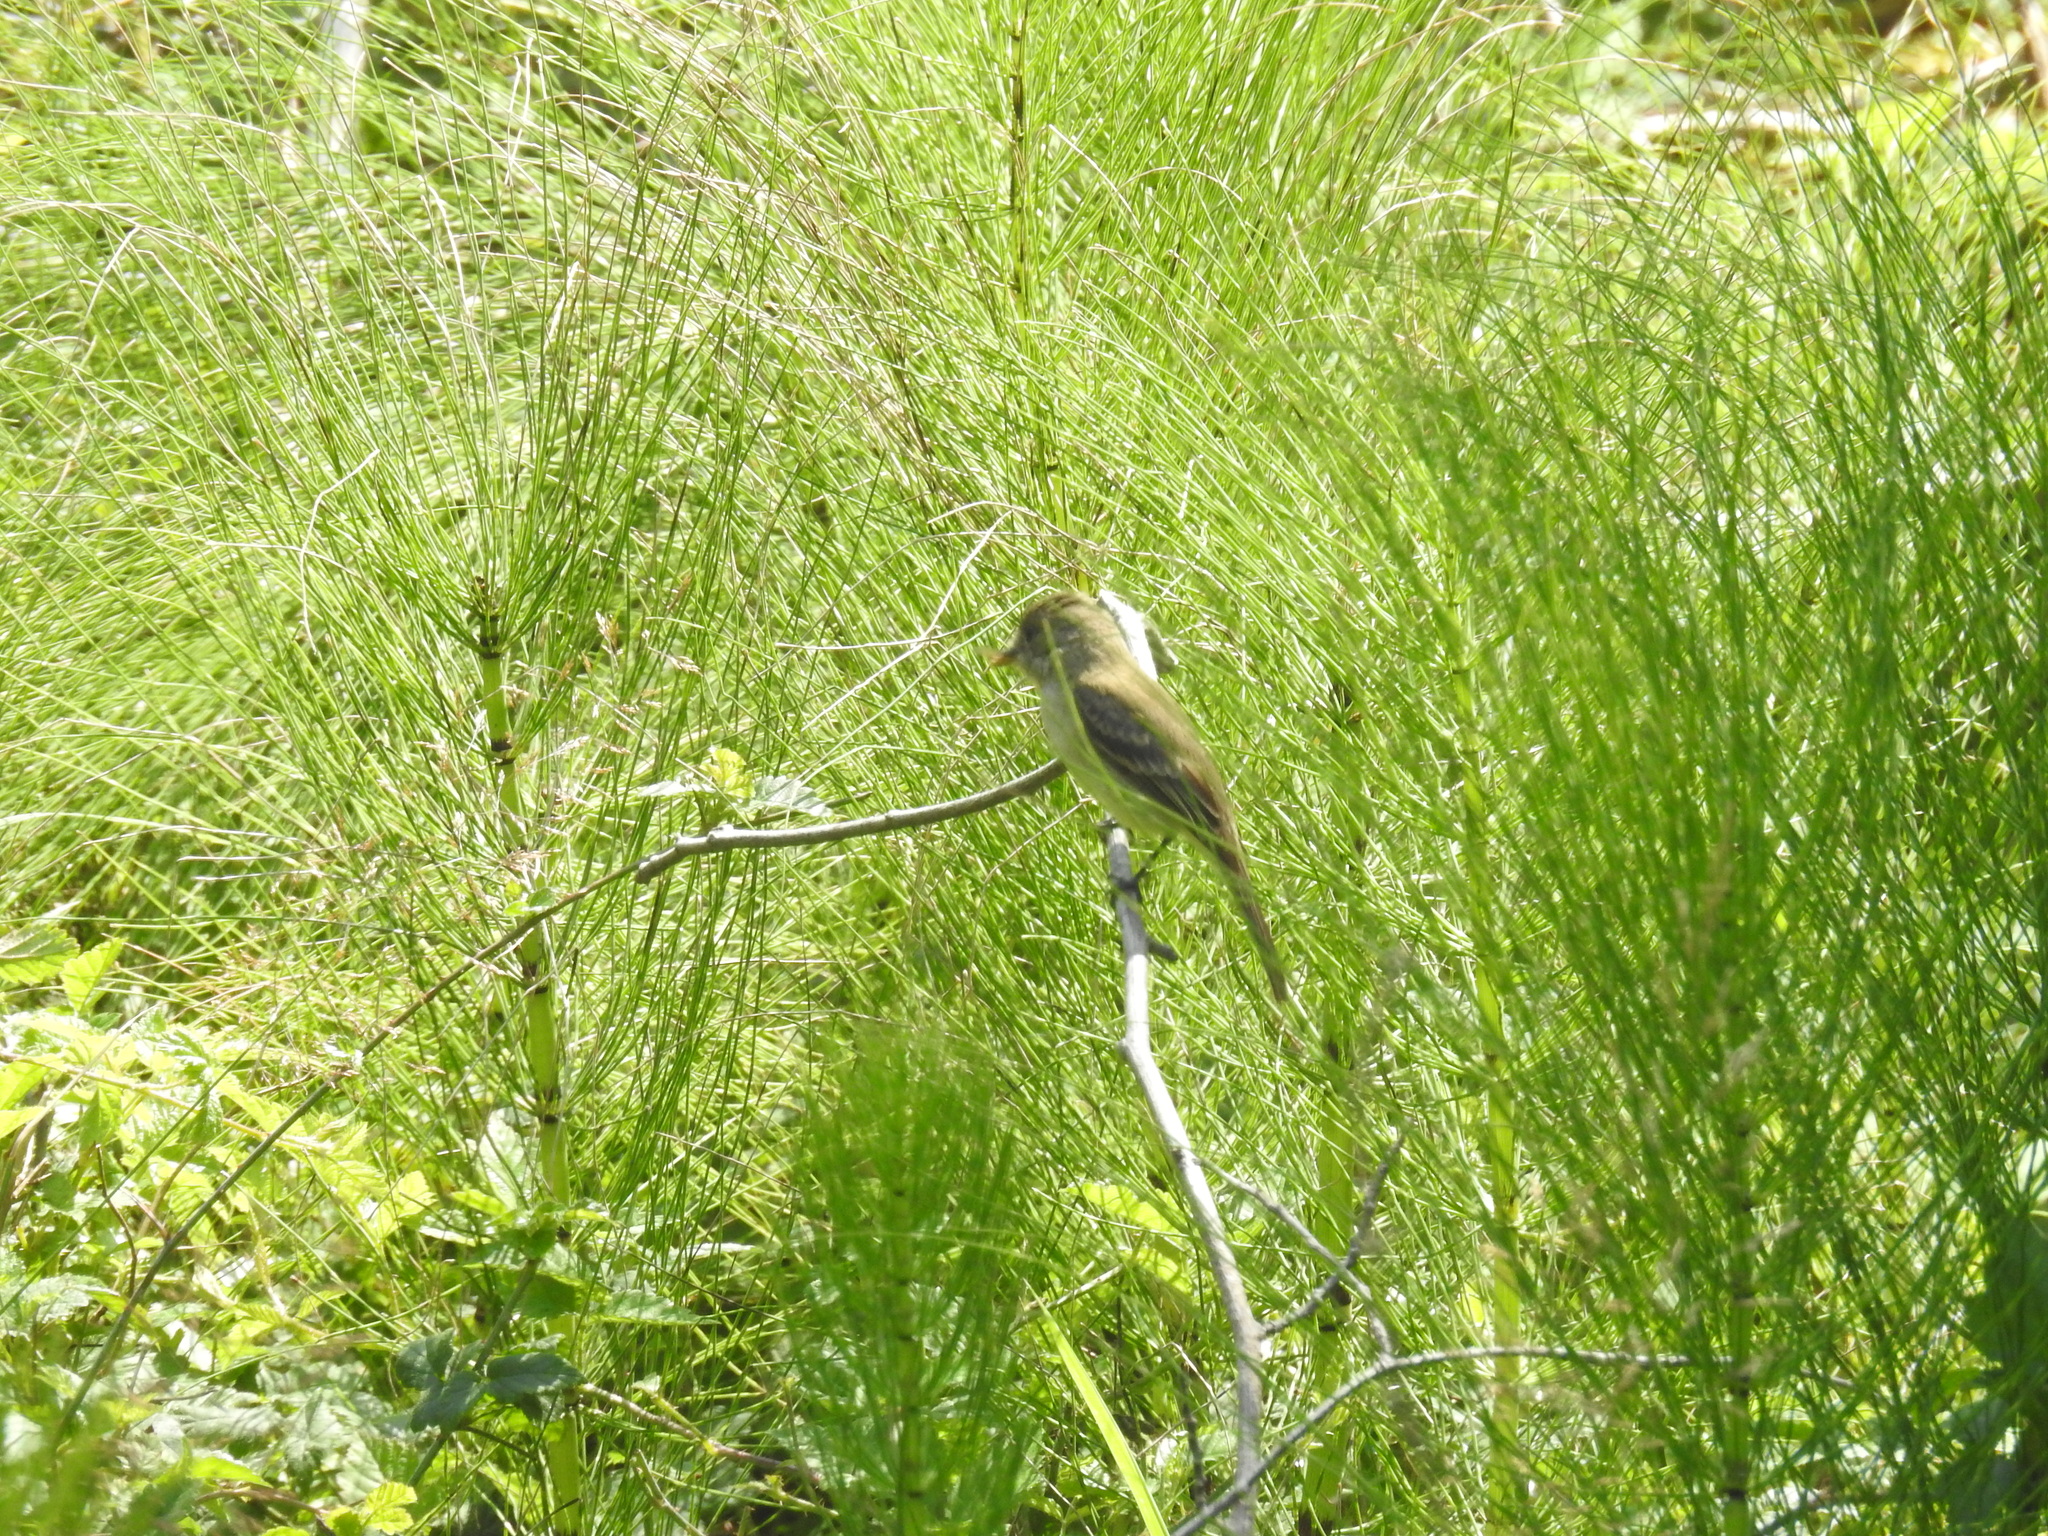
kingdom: Animalia
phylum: Chordata
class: Aves
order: Passeriformes
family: Tyrannidae
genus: Empidonax
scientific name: Empidonax traillii
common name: Willow flycatcher
